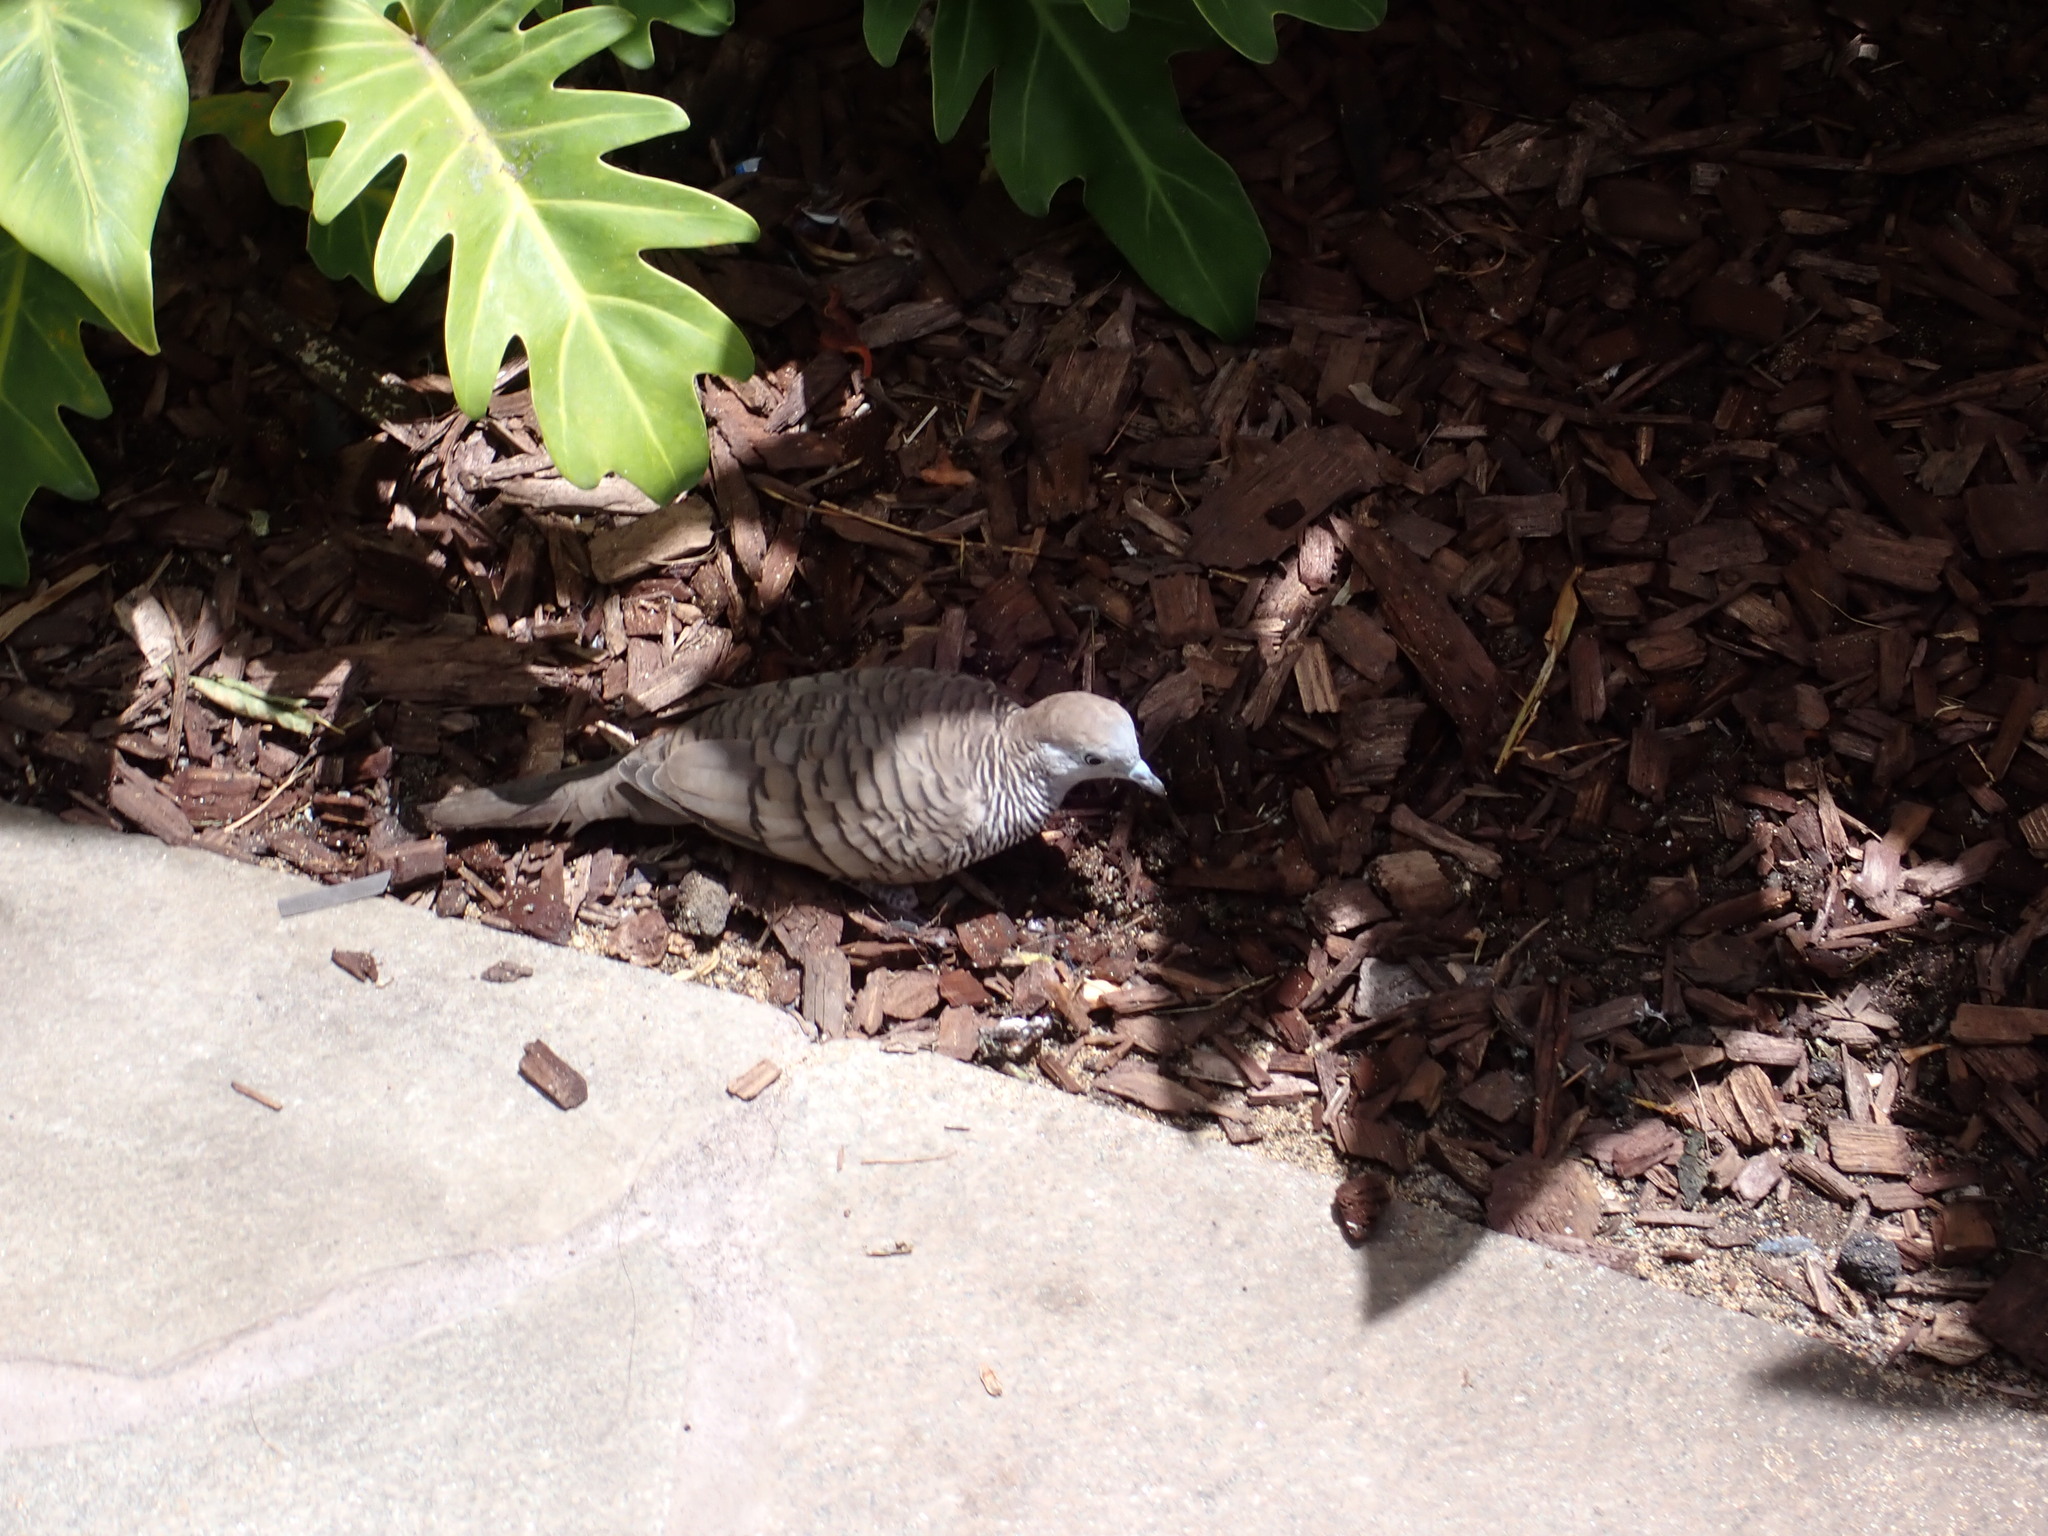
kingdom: Animalia
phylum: Chordata
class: Aves
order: Columbiformes
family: Columbidae
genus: Geopelia
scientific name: Geopelia striata
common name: Zebra dove
